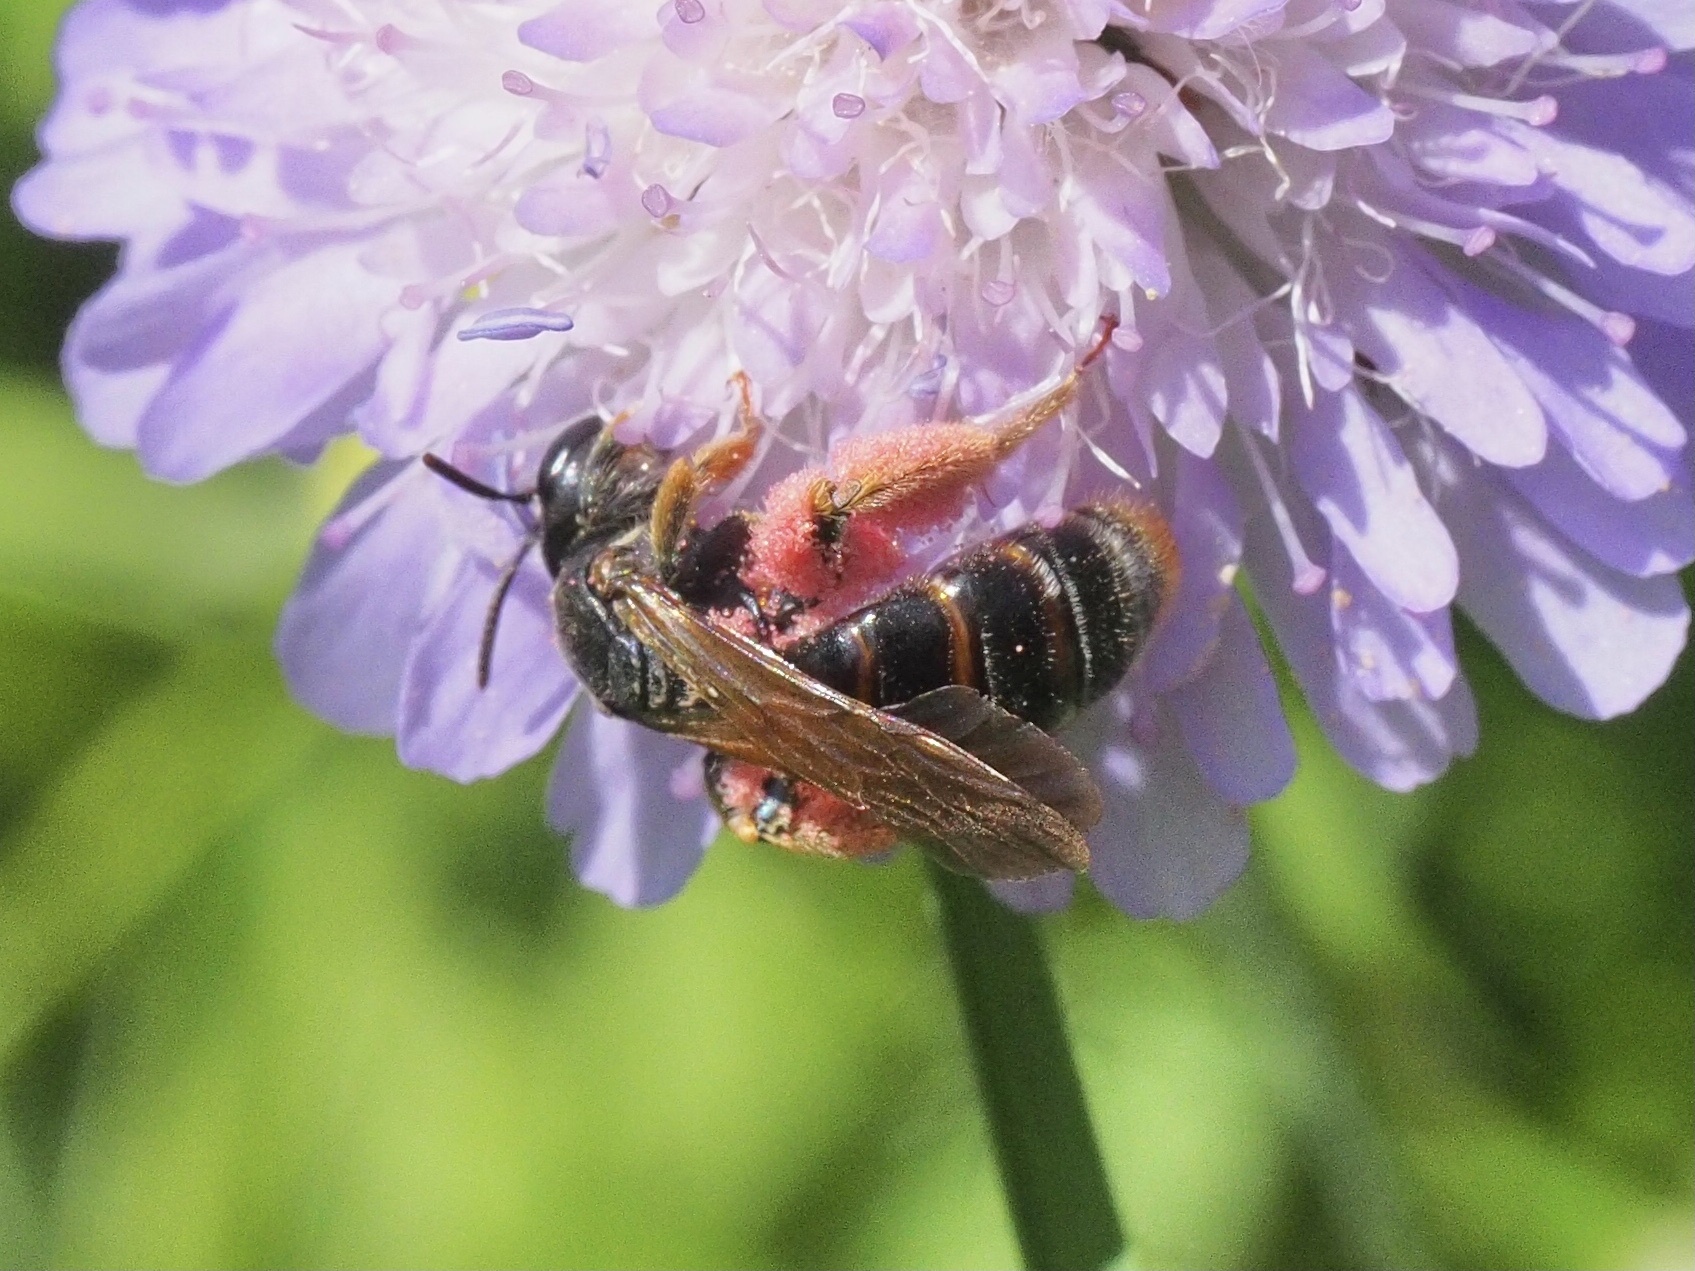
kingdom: Animalia
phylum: Arthropoda
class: Insecta
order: Hymenoptera
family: Andrenidae
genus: Andrena
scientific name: Andrena hattorfiana
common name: Large scabious mining bee
